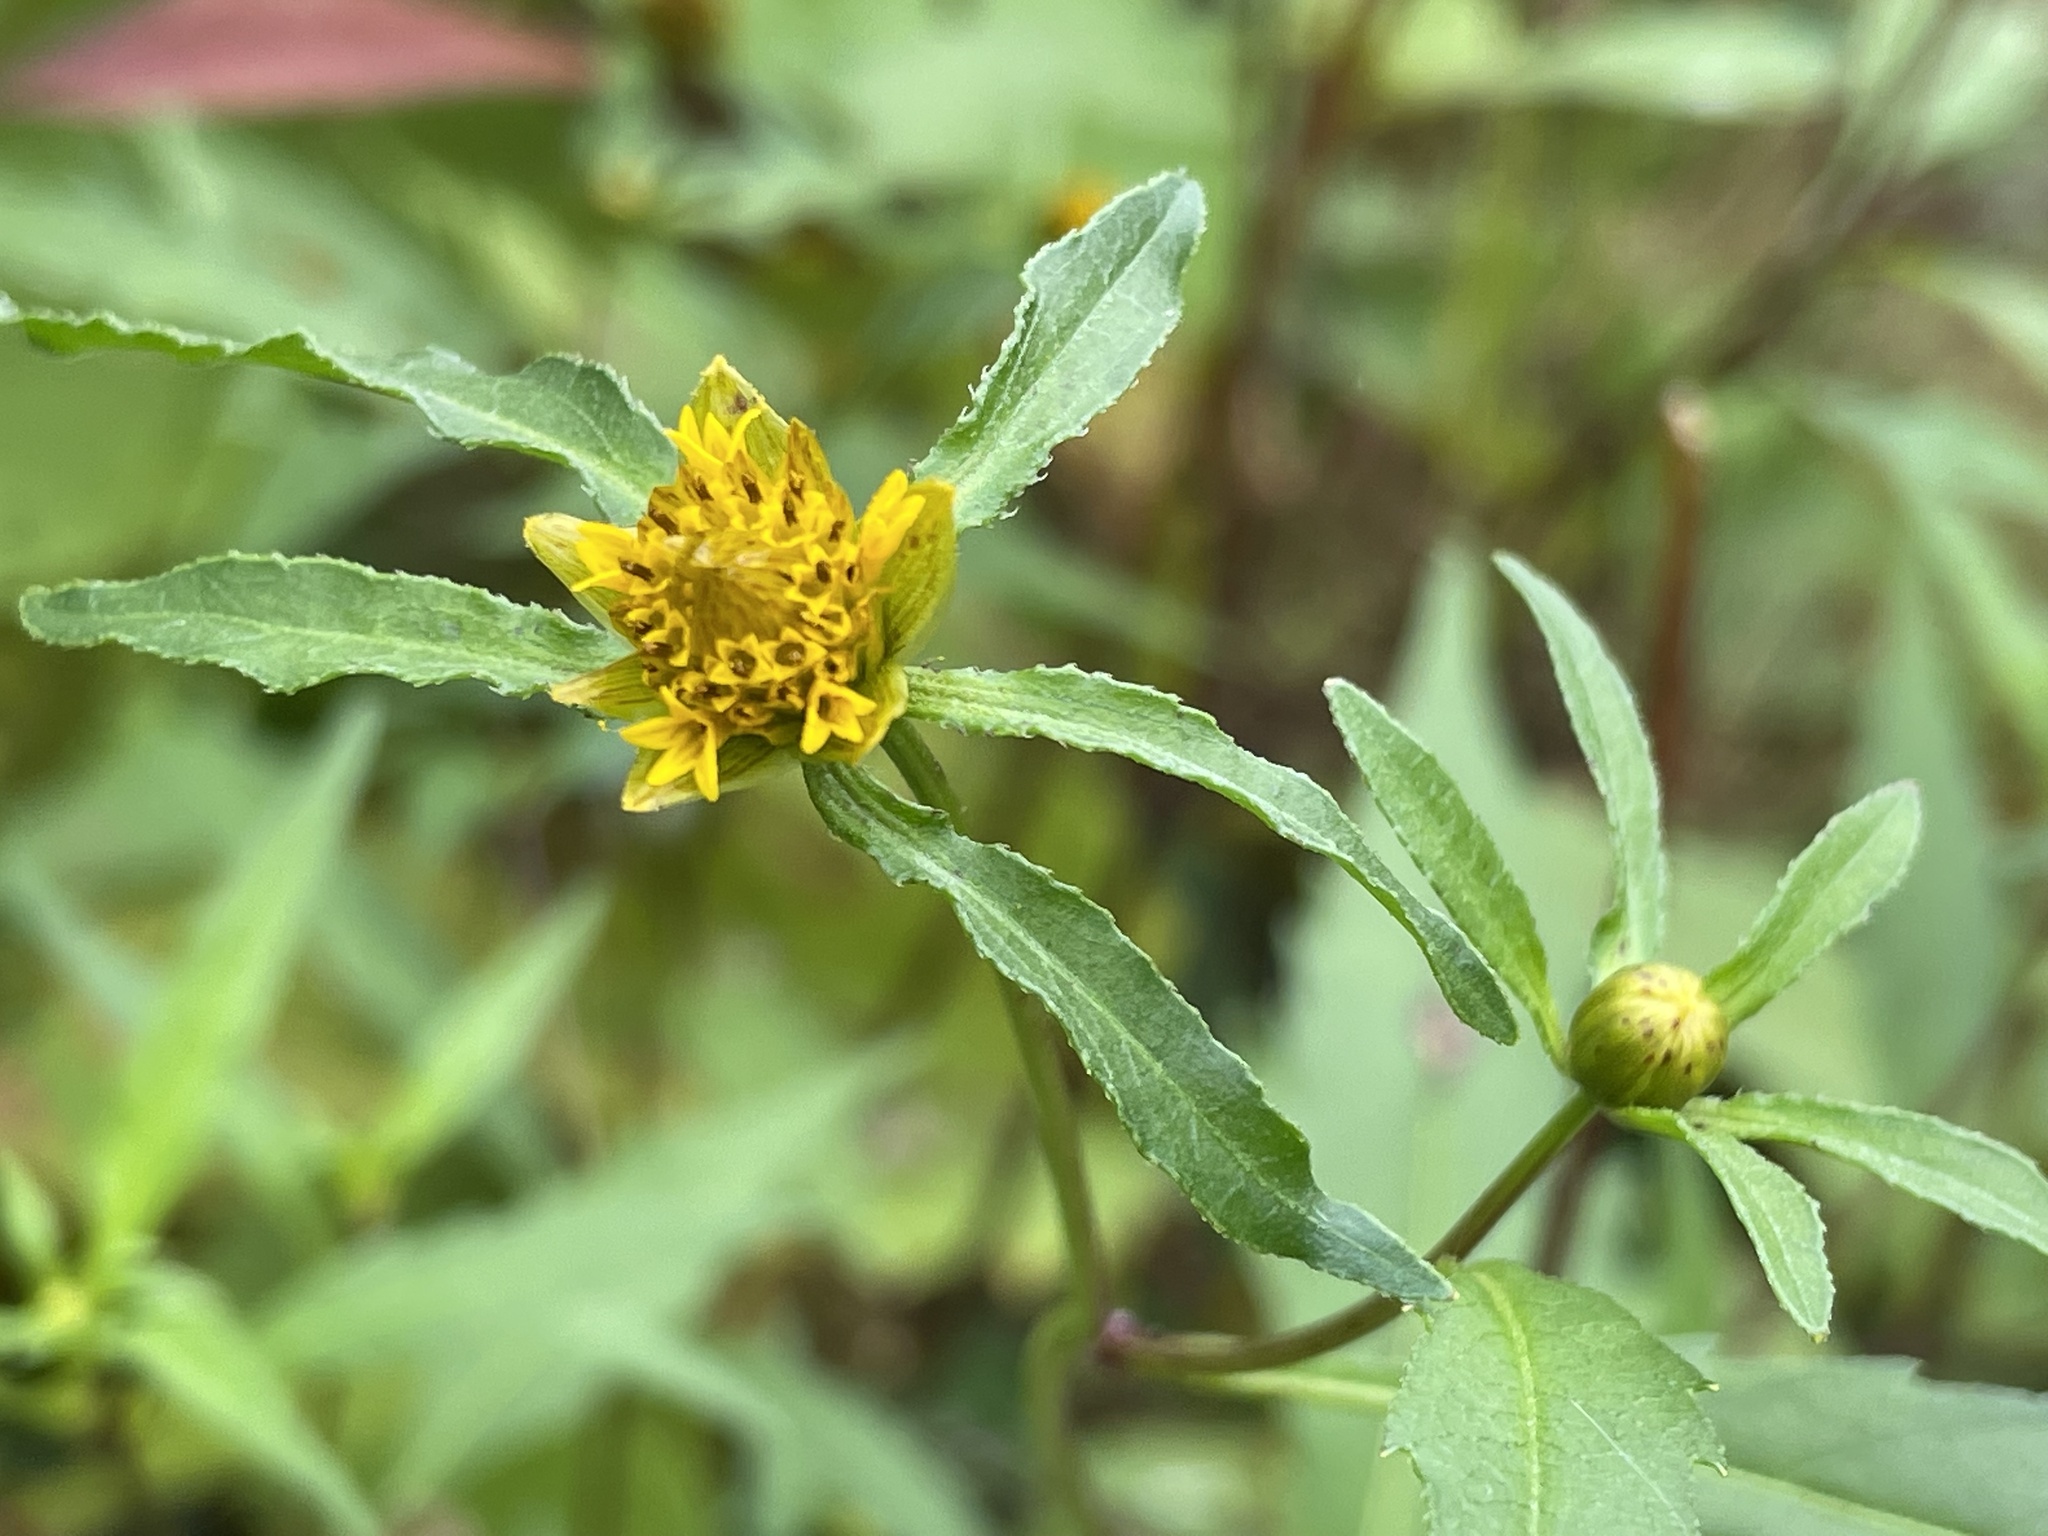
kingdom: Plantae
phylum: Tracheophyta
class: Magnoliopsida
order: Asterales
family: Asteraceae
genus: Bidens
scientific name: Bidens connata
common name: London bur-marigold
